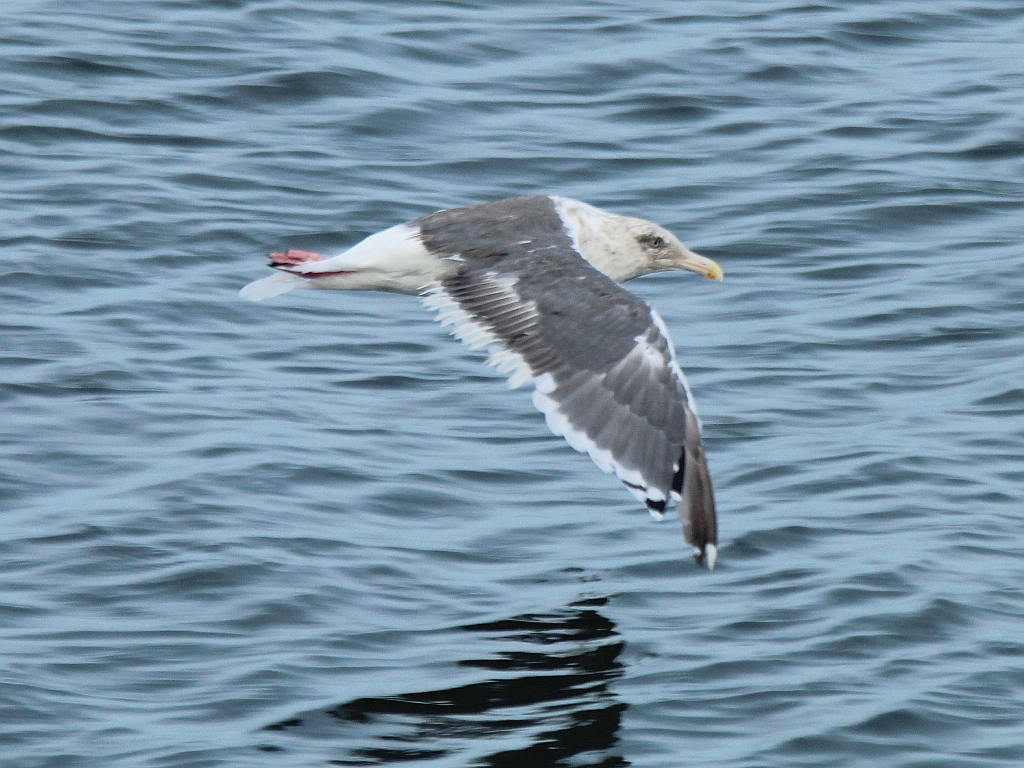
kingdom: Animalia
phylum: Chordata
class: Aves
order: Charadriiformes
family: Laridae
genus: Larus
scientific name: Larus schistisagus
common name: Slaty-backed gull
